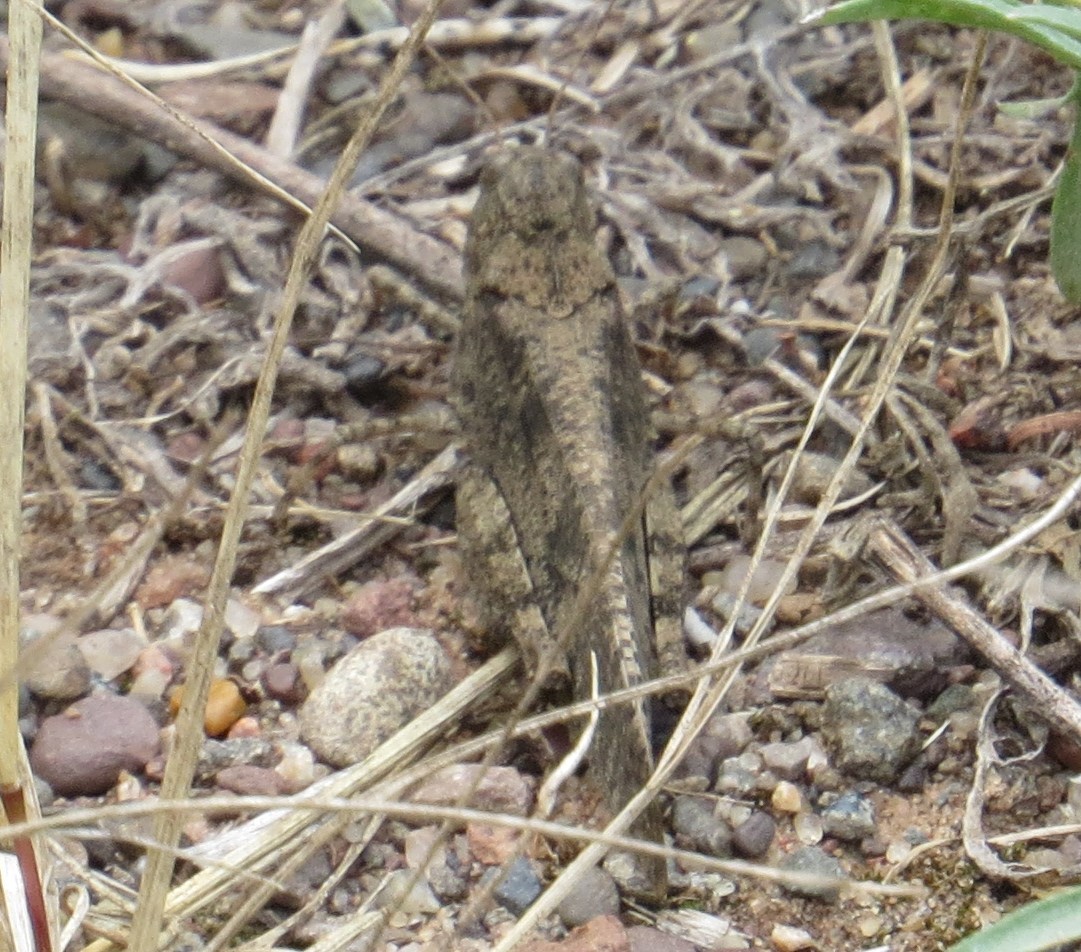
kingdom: Animalia
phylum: Arthropoda
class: Insecta
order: Orthoptera
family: Acrididae
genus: Dissosteira
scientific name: Dissosteira carolina
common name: Carolina grasshopper
